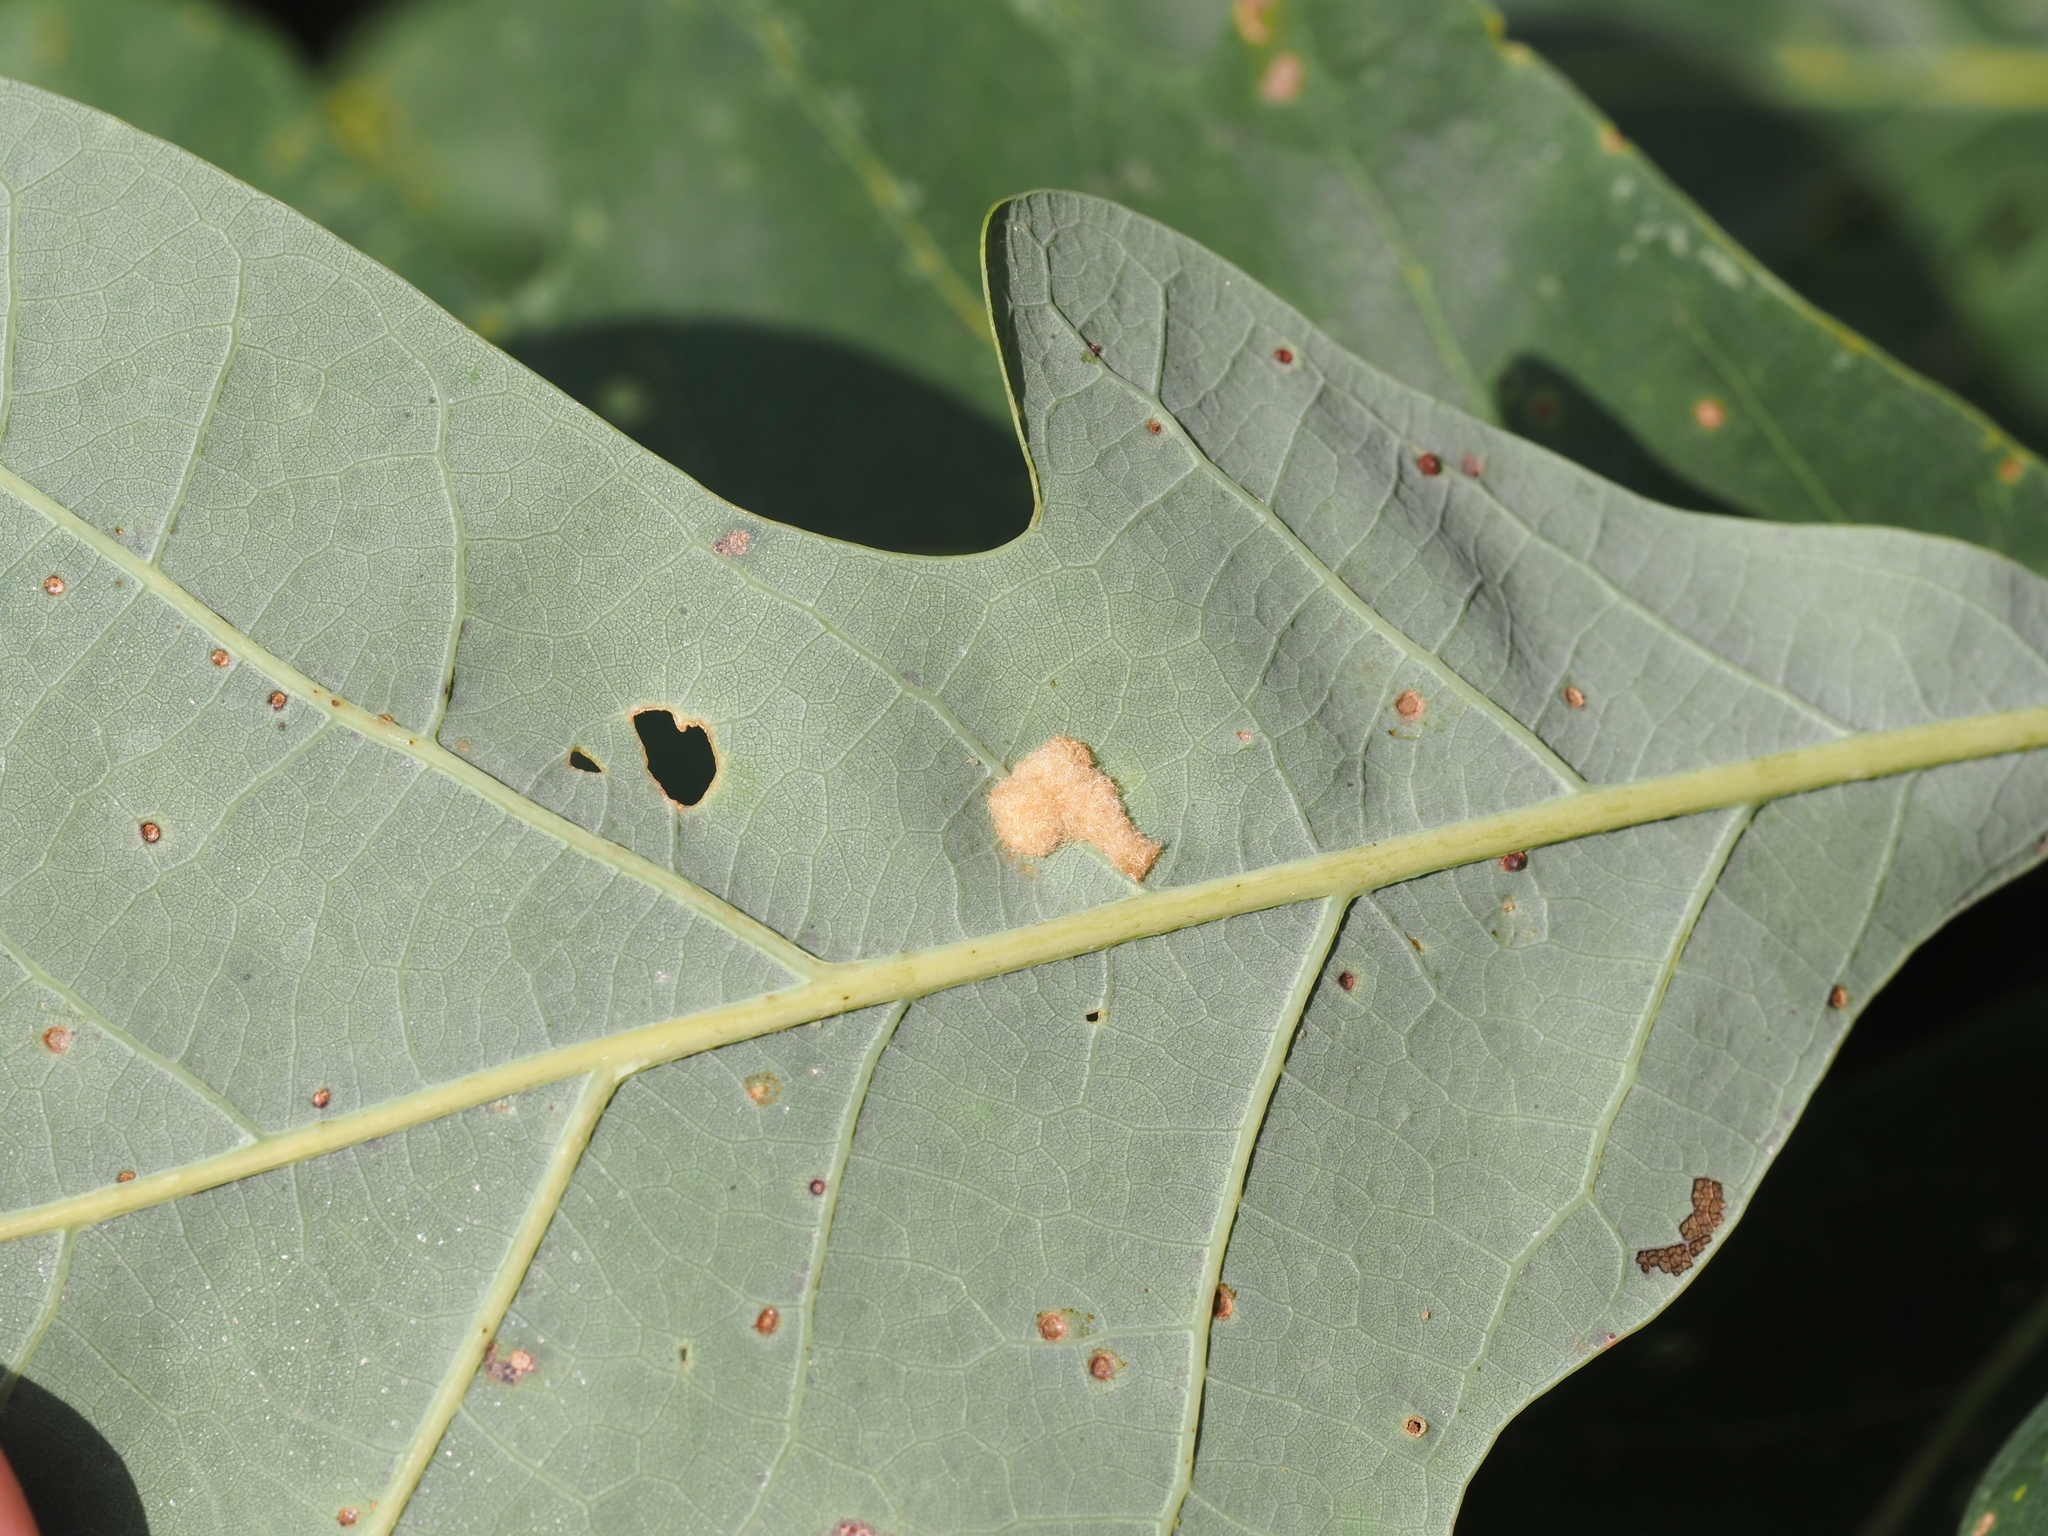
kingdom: Animalia
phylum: Arthropoda
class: Insecta
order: Hymenoptera
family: Cynipidae
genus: Neuroterus
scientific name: Neuroterus quercusverrucarum
